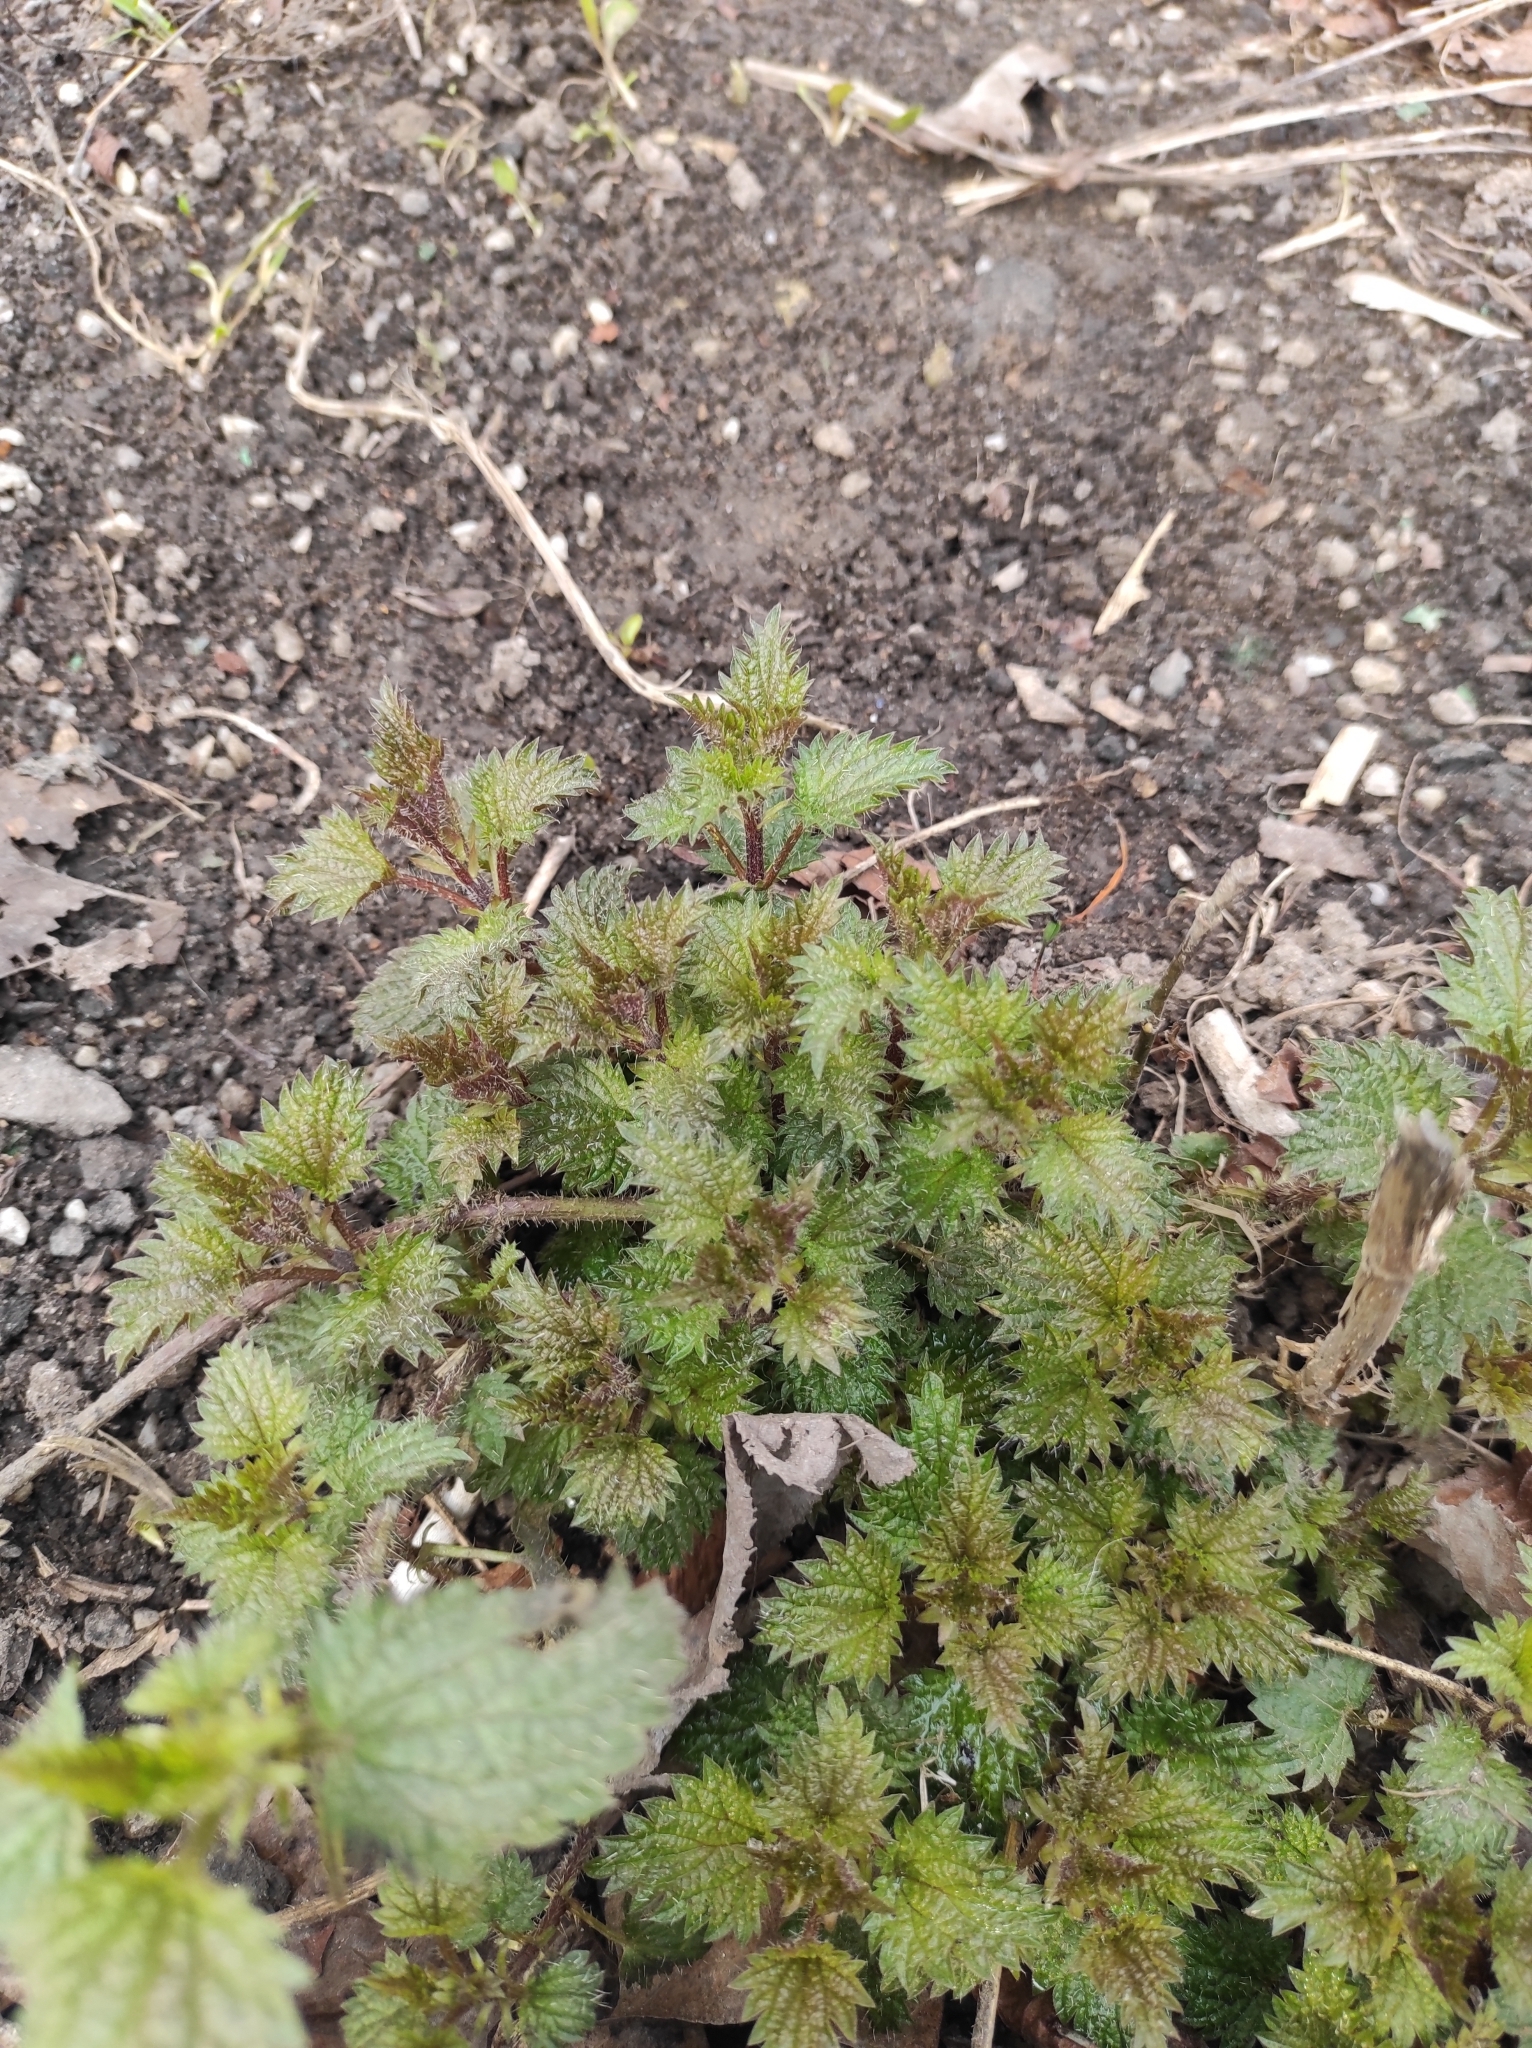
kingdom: Plantae
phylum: Tracheophyta
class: Magnoliopsida
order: Rosales
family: Urticaceae
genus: Urtica
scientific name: Urtica dioica
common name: Common nettle
